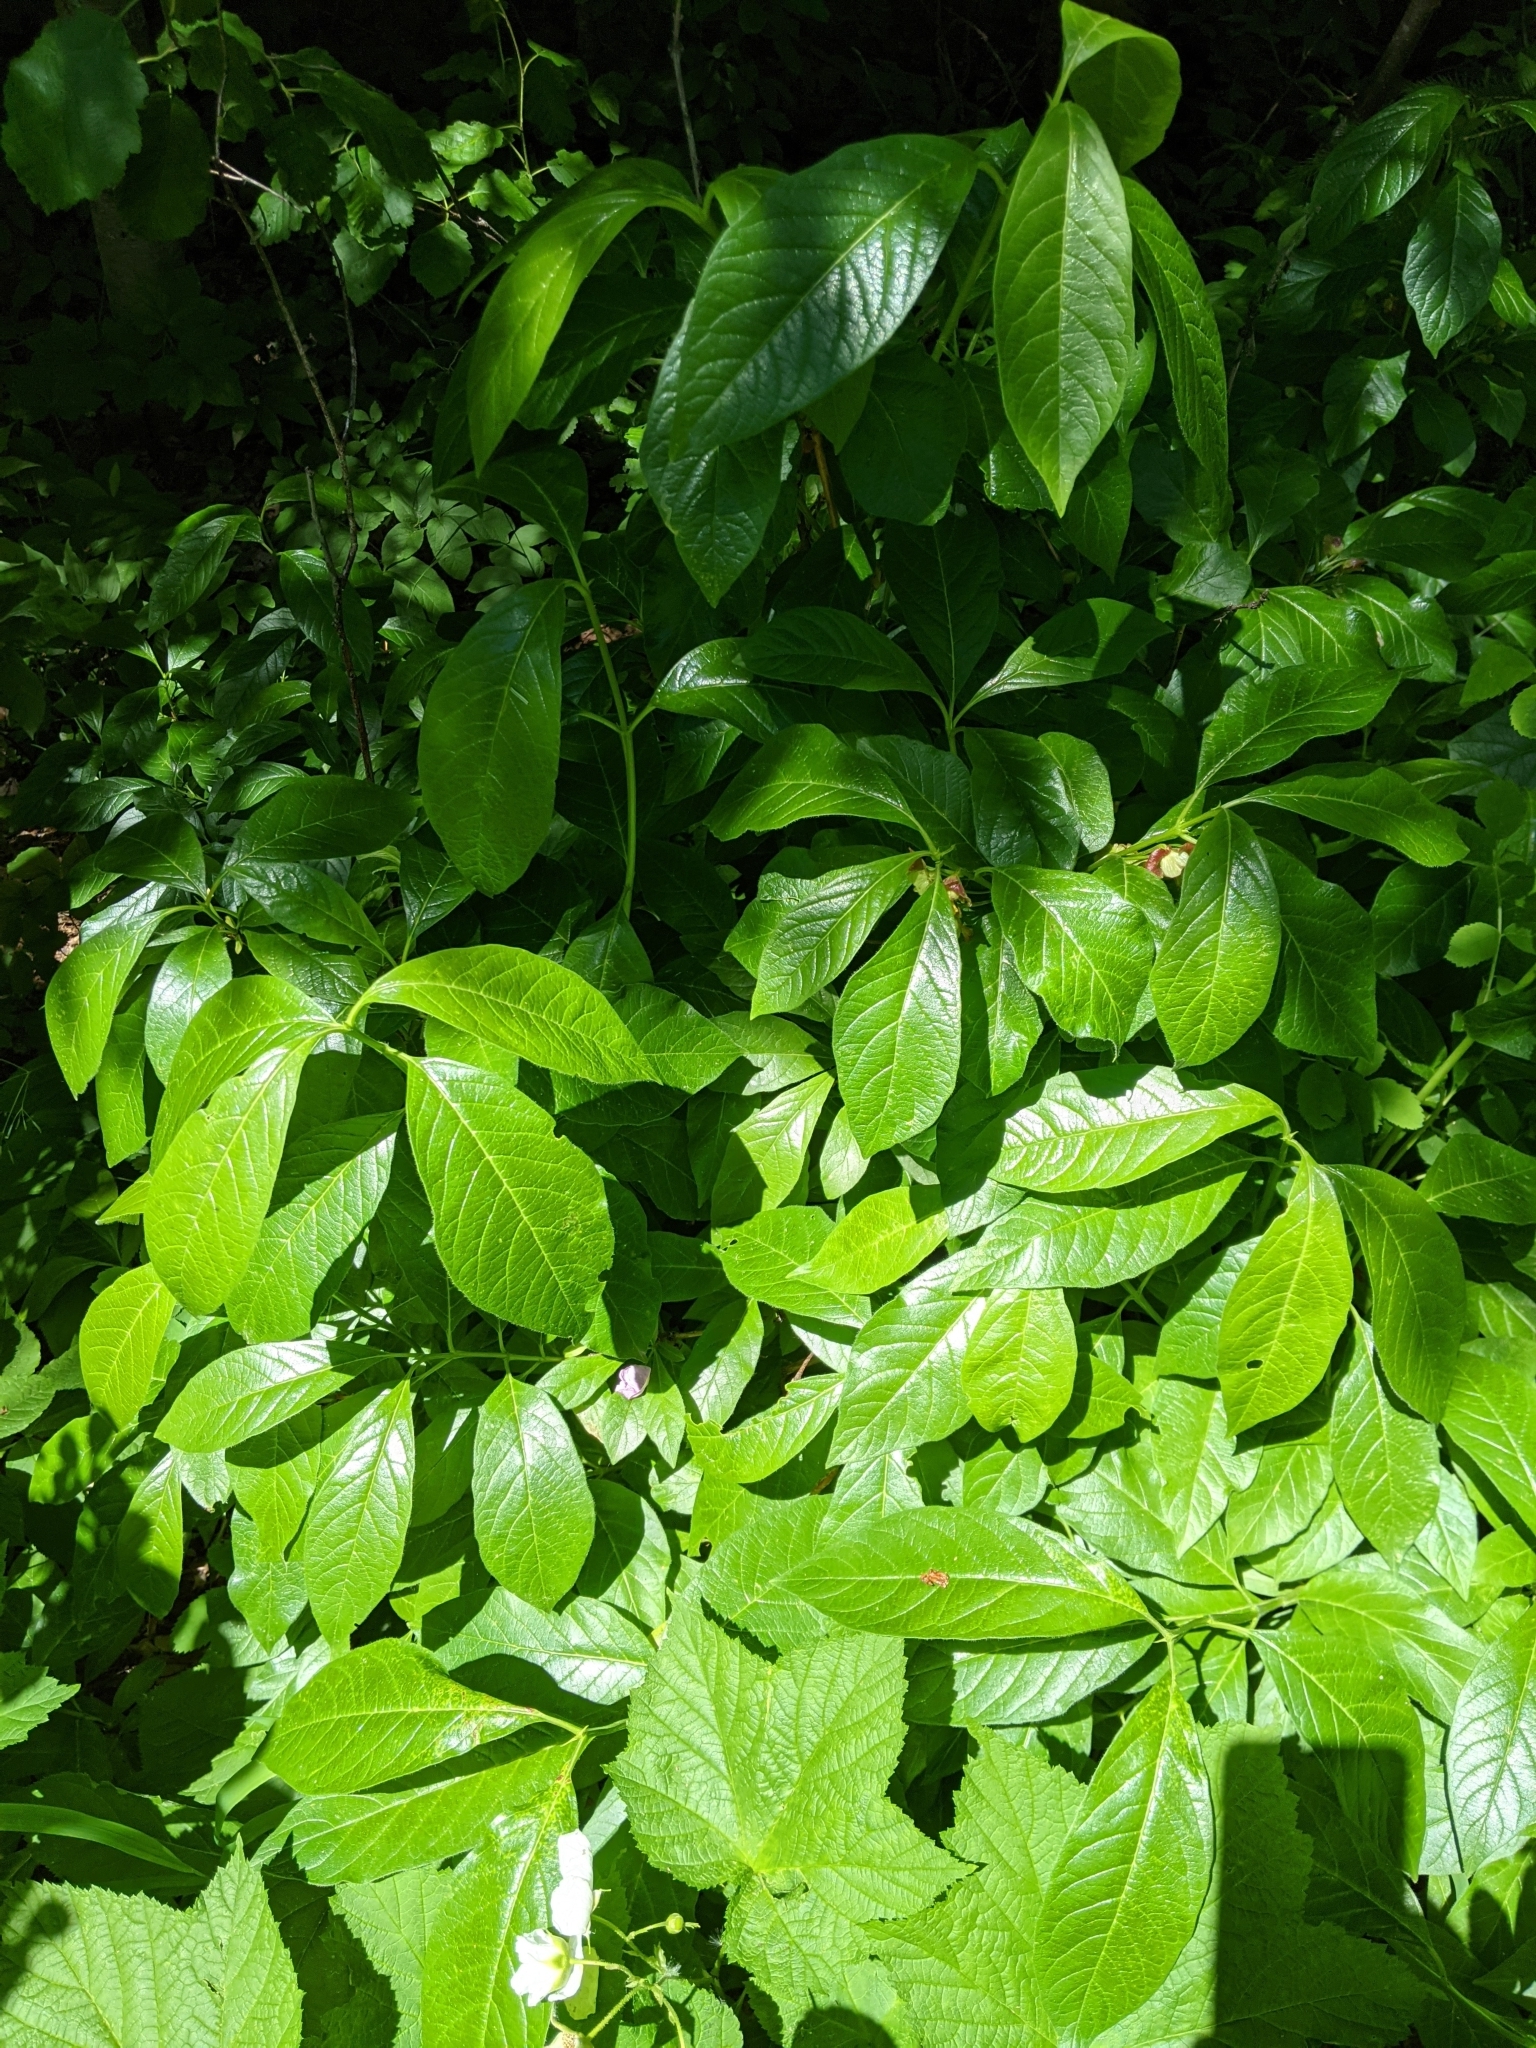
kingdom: Plantae
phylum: Tracheophyta
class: Magnoliopsida
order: Dipsacales
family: Caprifoliaceae
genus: Lonicera
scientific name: Lonicera involucrata
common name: Californian honeysuckle
